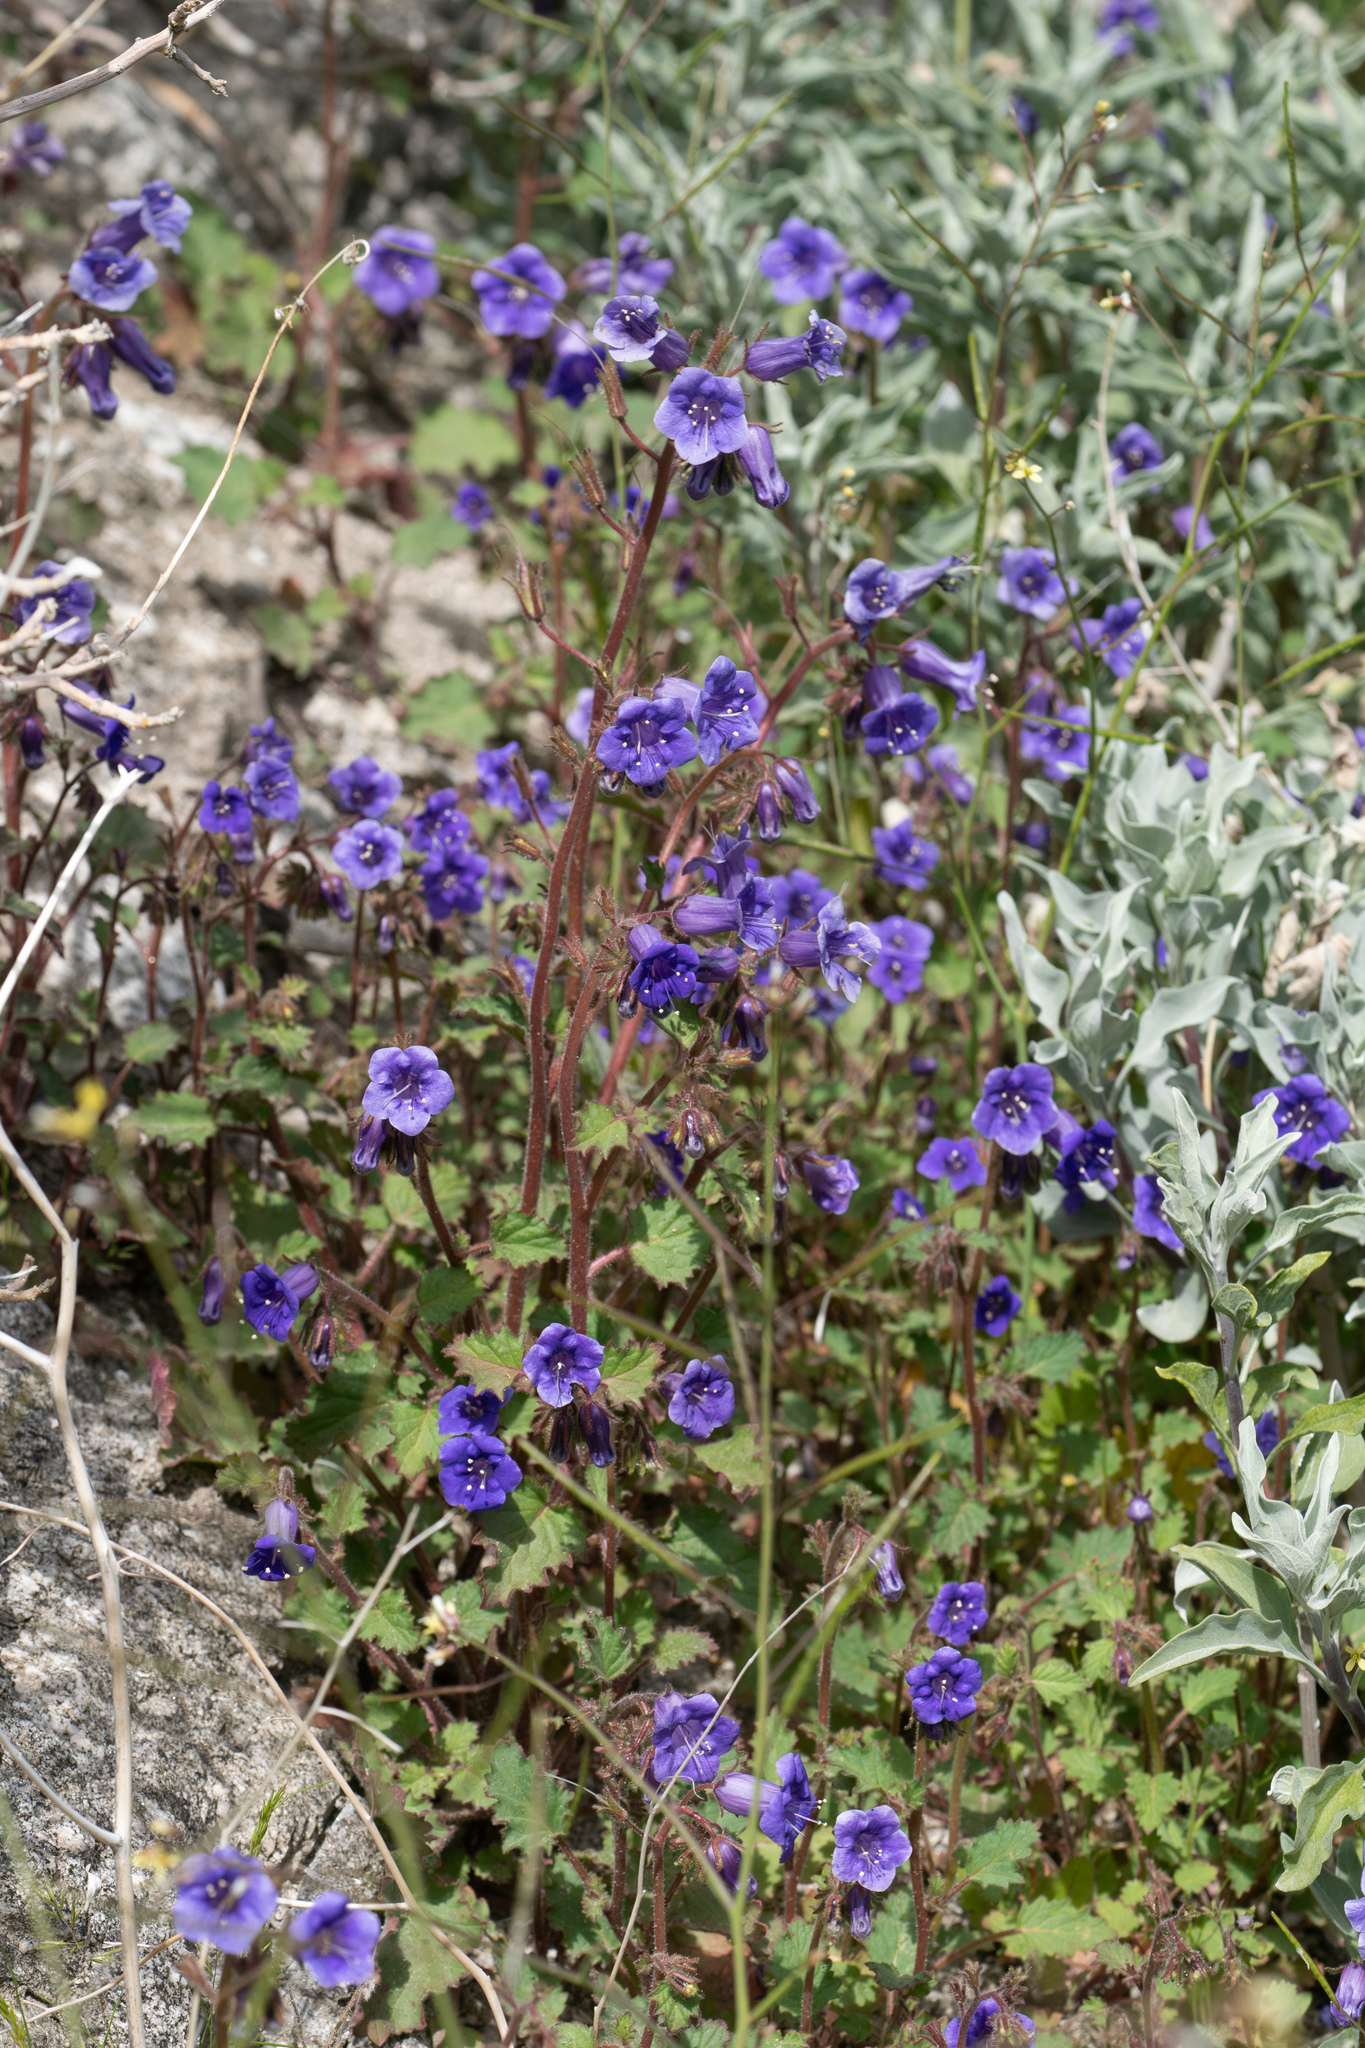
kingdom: Plantae
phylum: Tracheophyta
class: Magnoliopsida
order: Boraginales
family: Hydrophyllaceae
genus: Phacelia
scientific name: Phacelia minor
